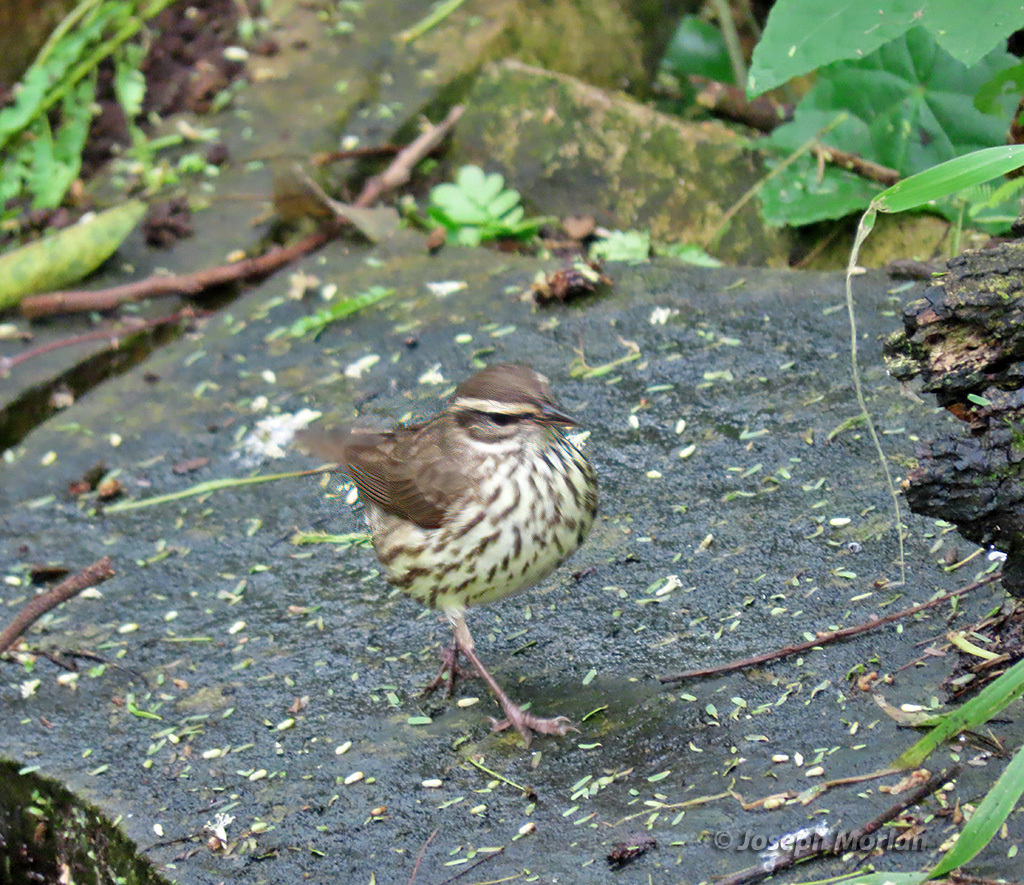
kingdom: Animalia
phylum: Chordata
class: Aves
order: Passeriformes
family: Parulidae
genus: Parkesia
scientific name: Parkesia noveboracensis
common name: Northern waterthrush
